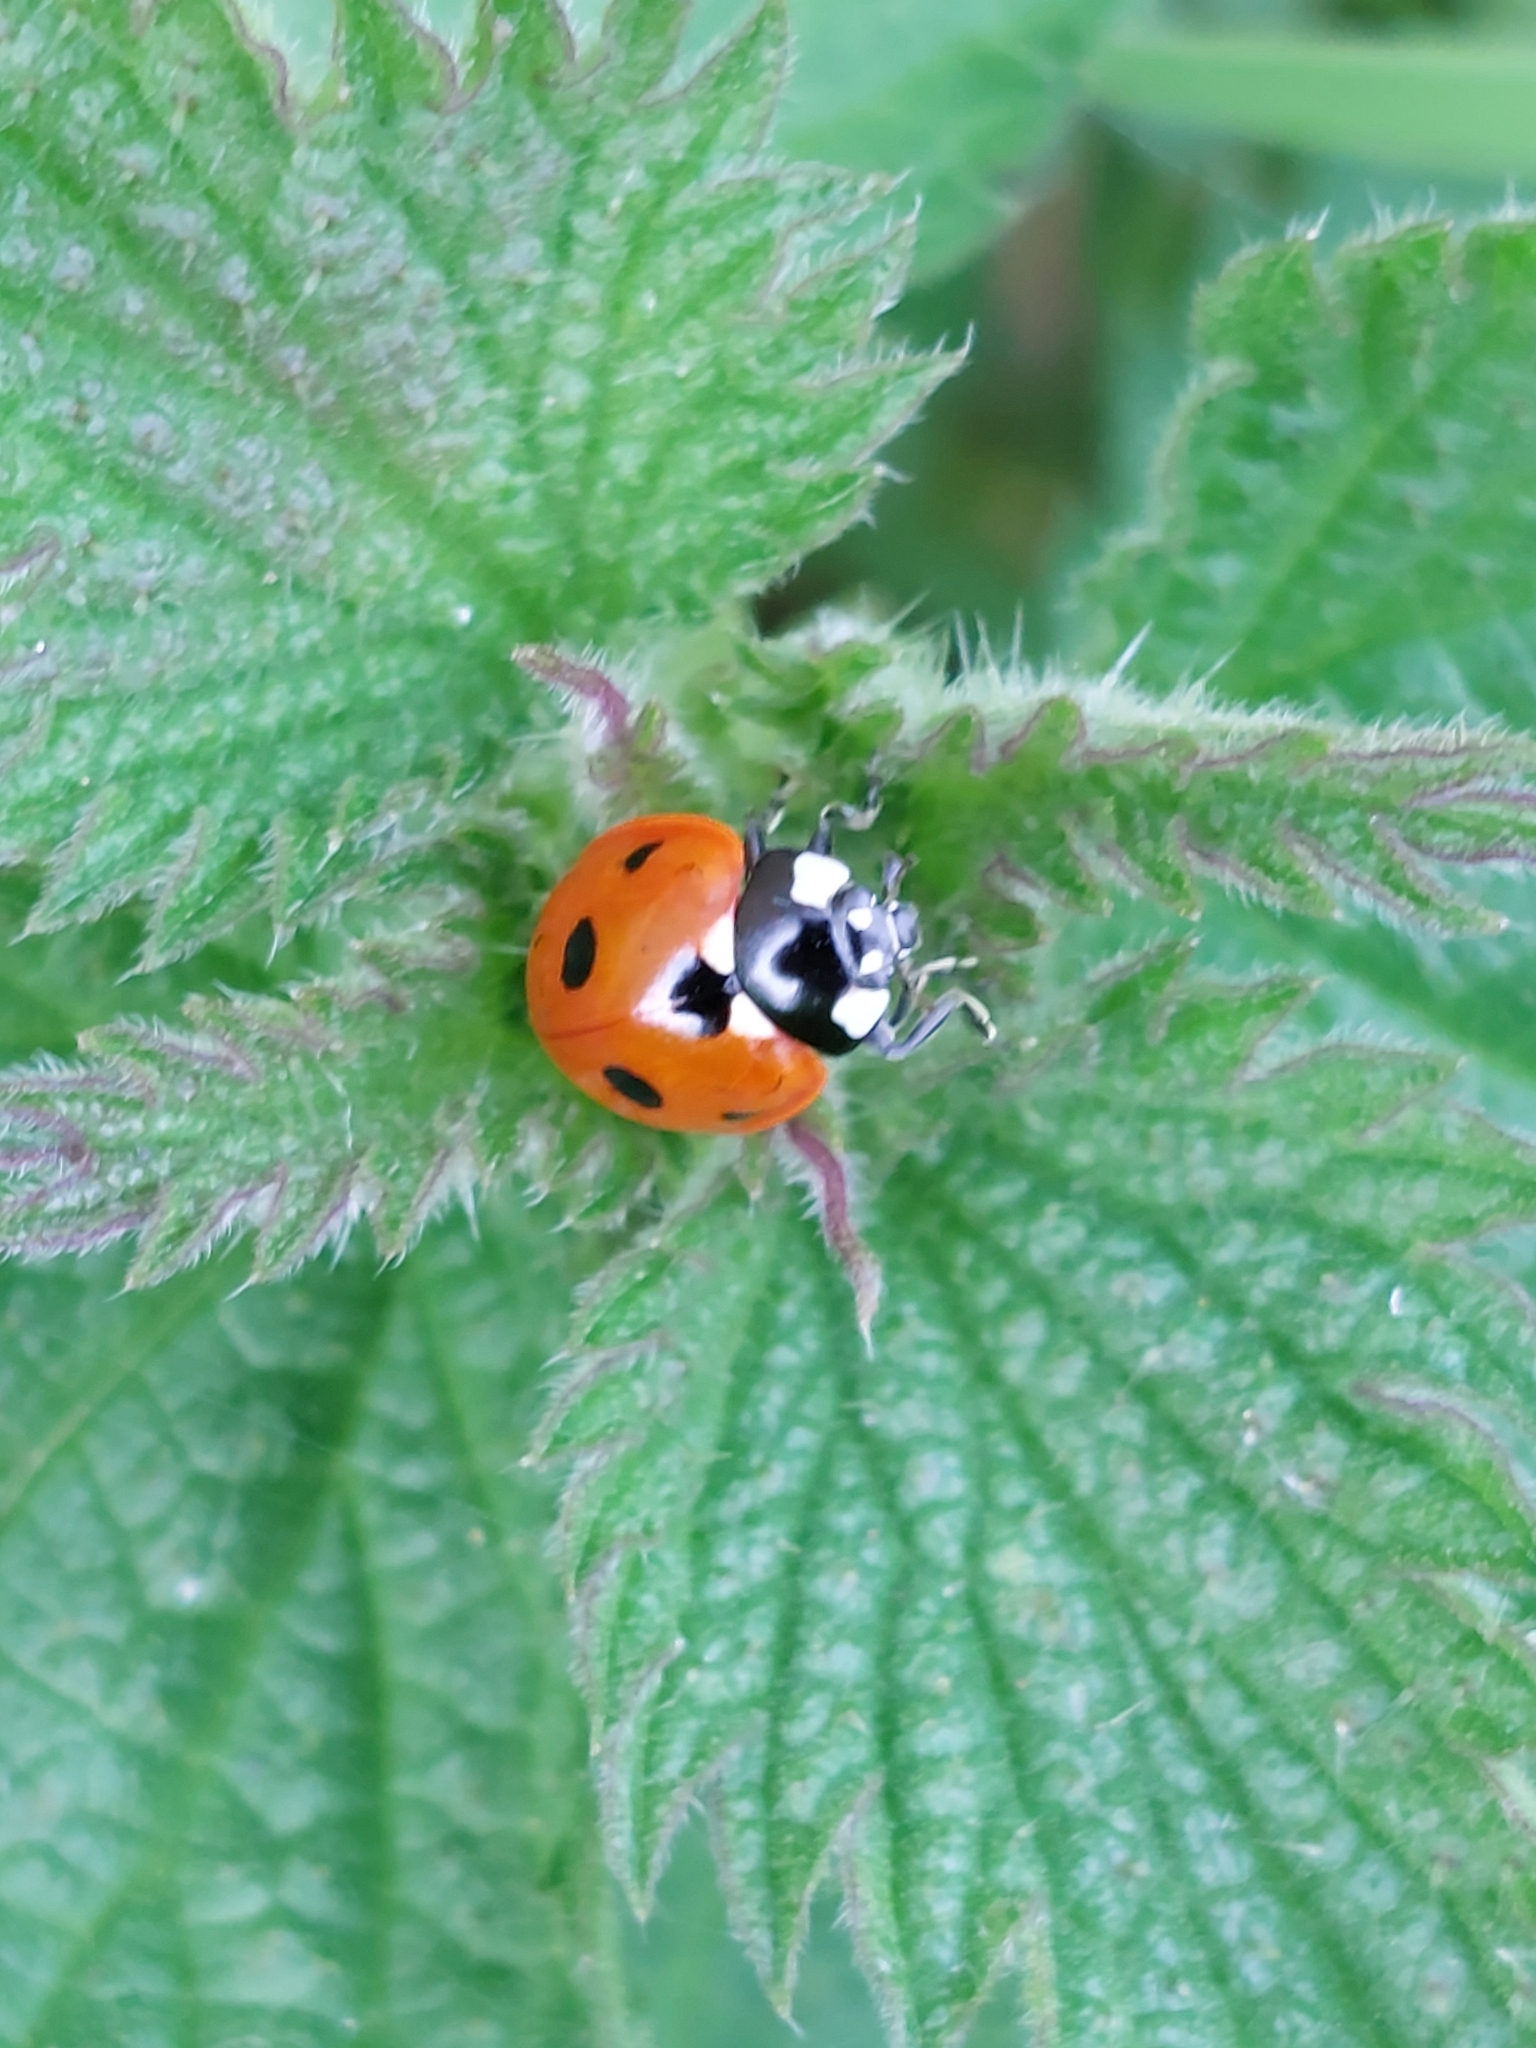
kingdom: Animalia
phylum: Arthropoda
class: Insecta
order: Coleoptera
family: Coccinellidae
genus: Coccinella
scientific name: Coccinella septempunctata
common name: Sevenspotted lady beetle
